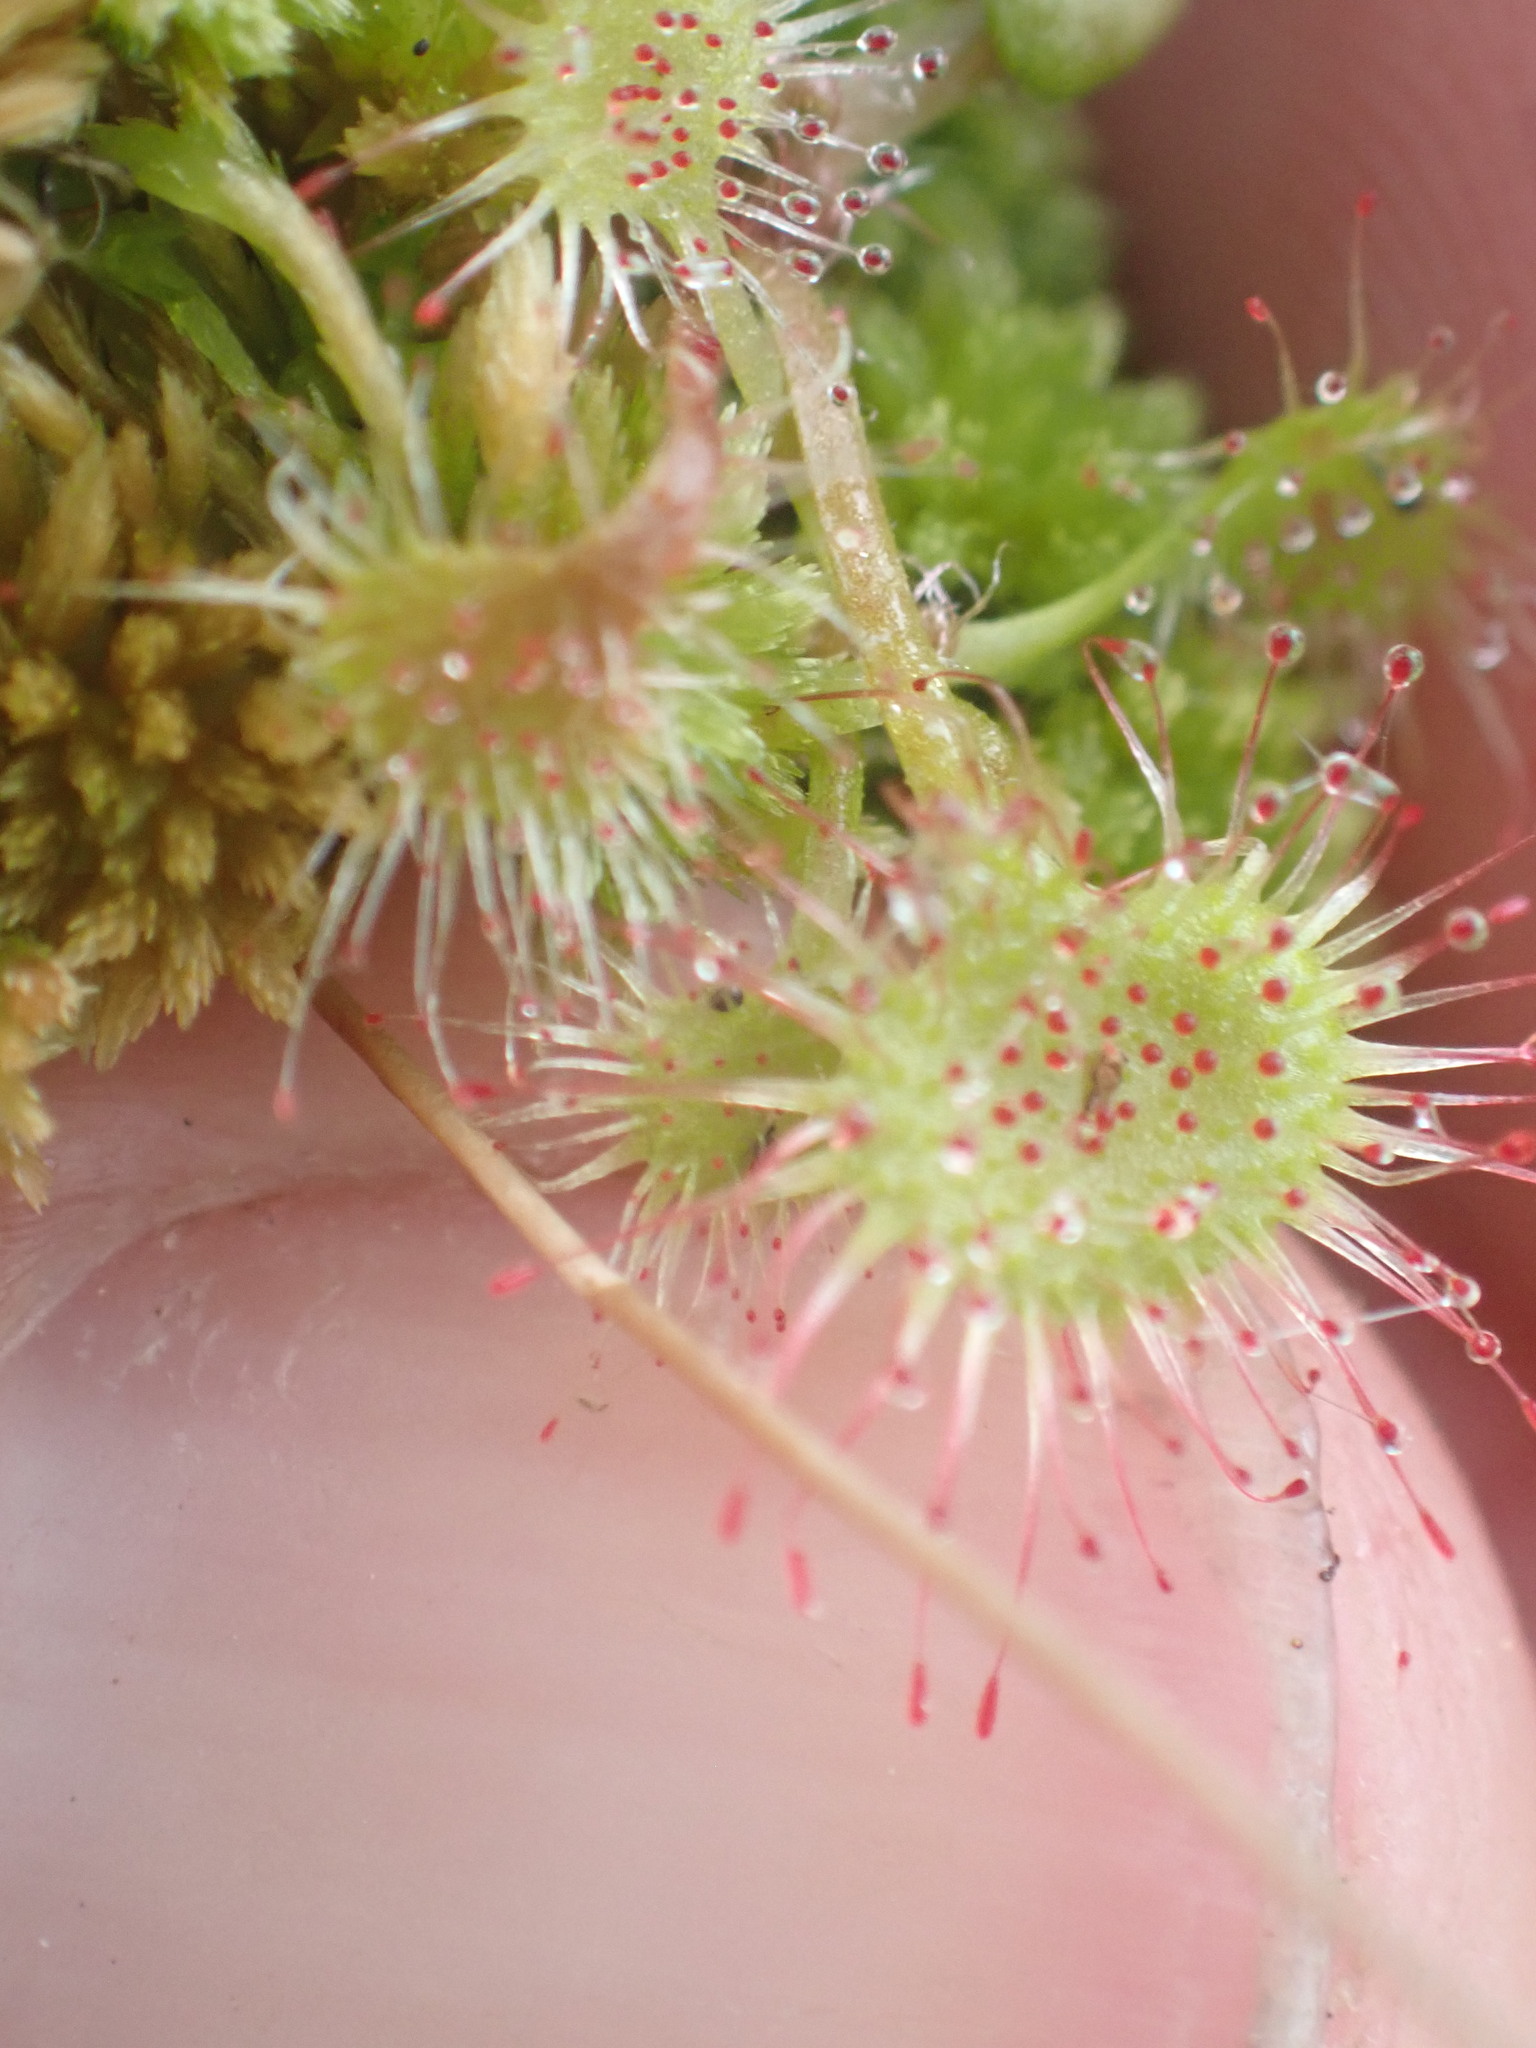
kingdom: Plantae
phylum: Tracheophyta
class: Magnoliopsida
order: Caryophyllales
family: Droseraceae
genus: Drosera
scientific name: Drosera rotundifolia
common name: Round-leaved sundew
